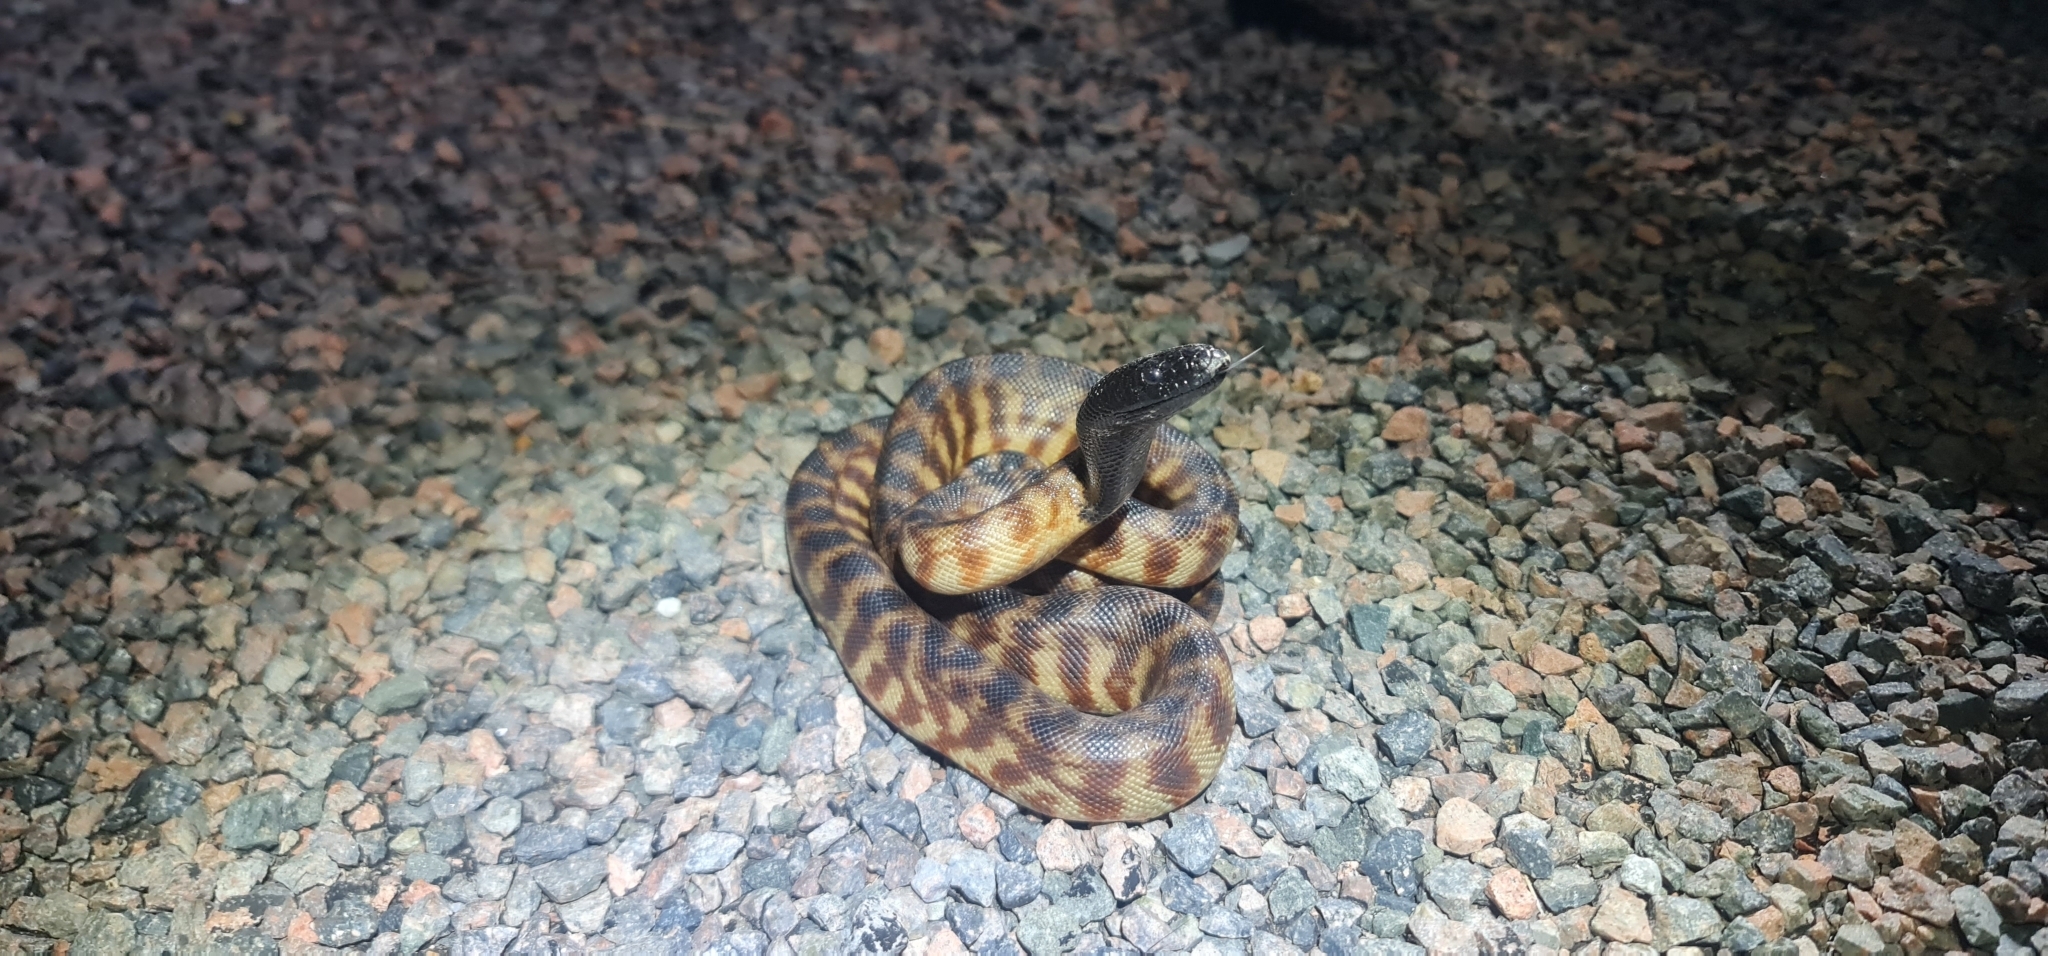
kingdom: Animalia
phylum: Chordata
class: Squamata
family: Pythonidae
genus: Aspidites
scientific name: Aspidites melanocephalus
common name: Black-headed python
